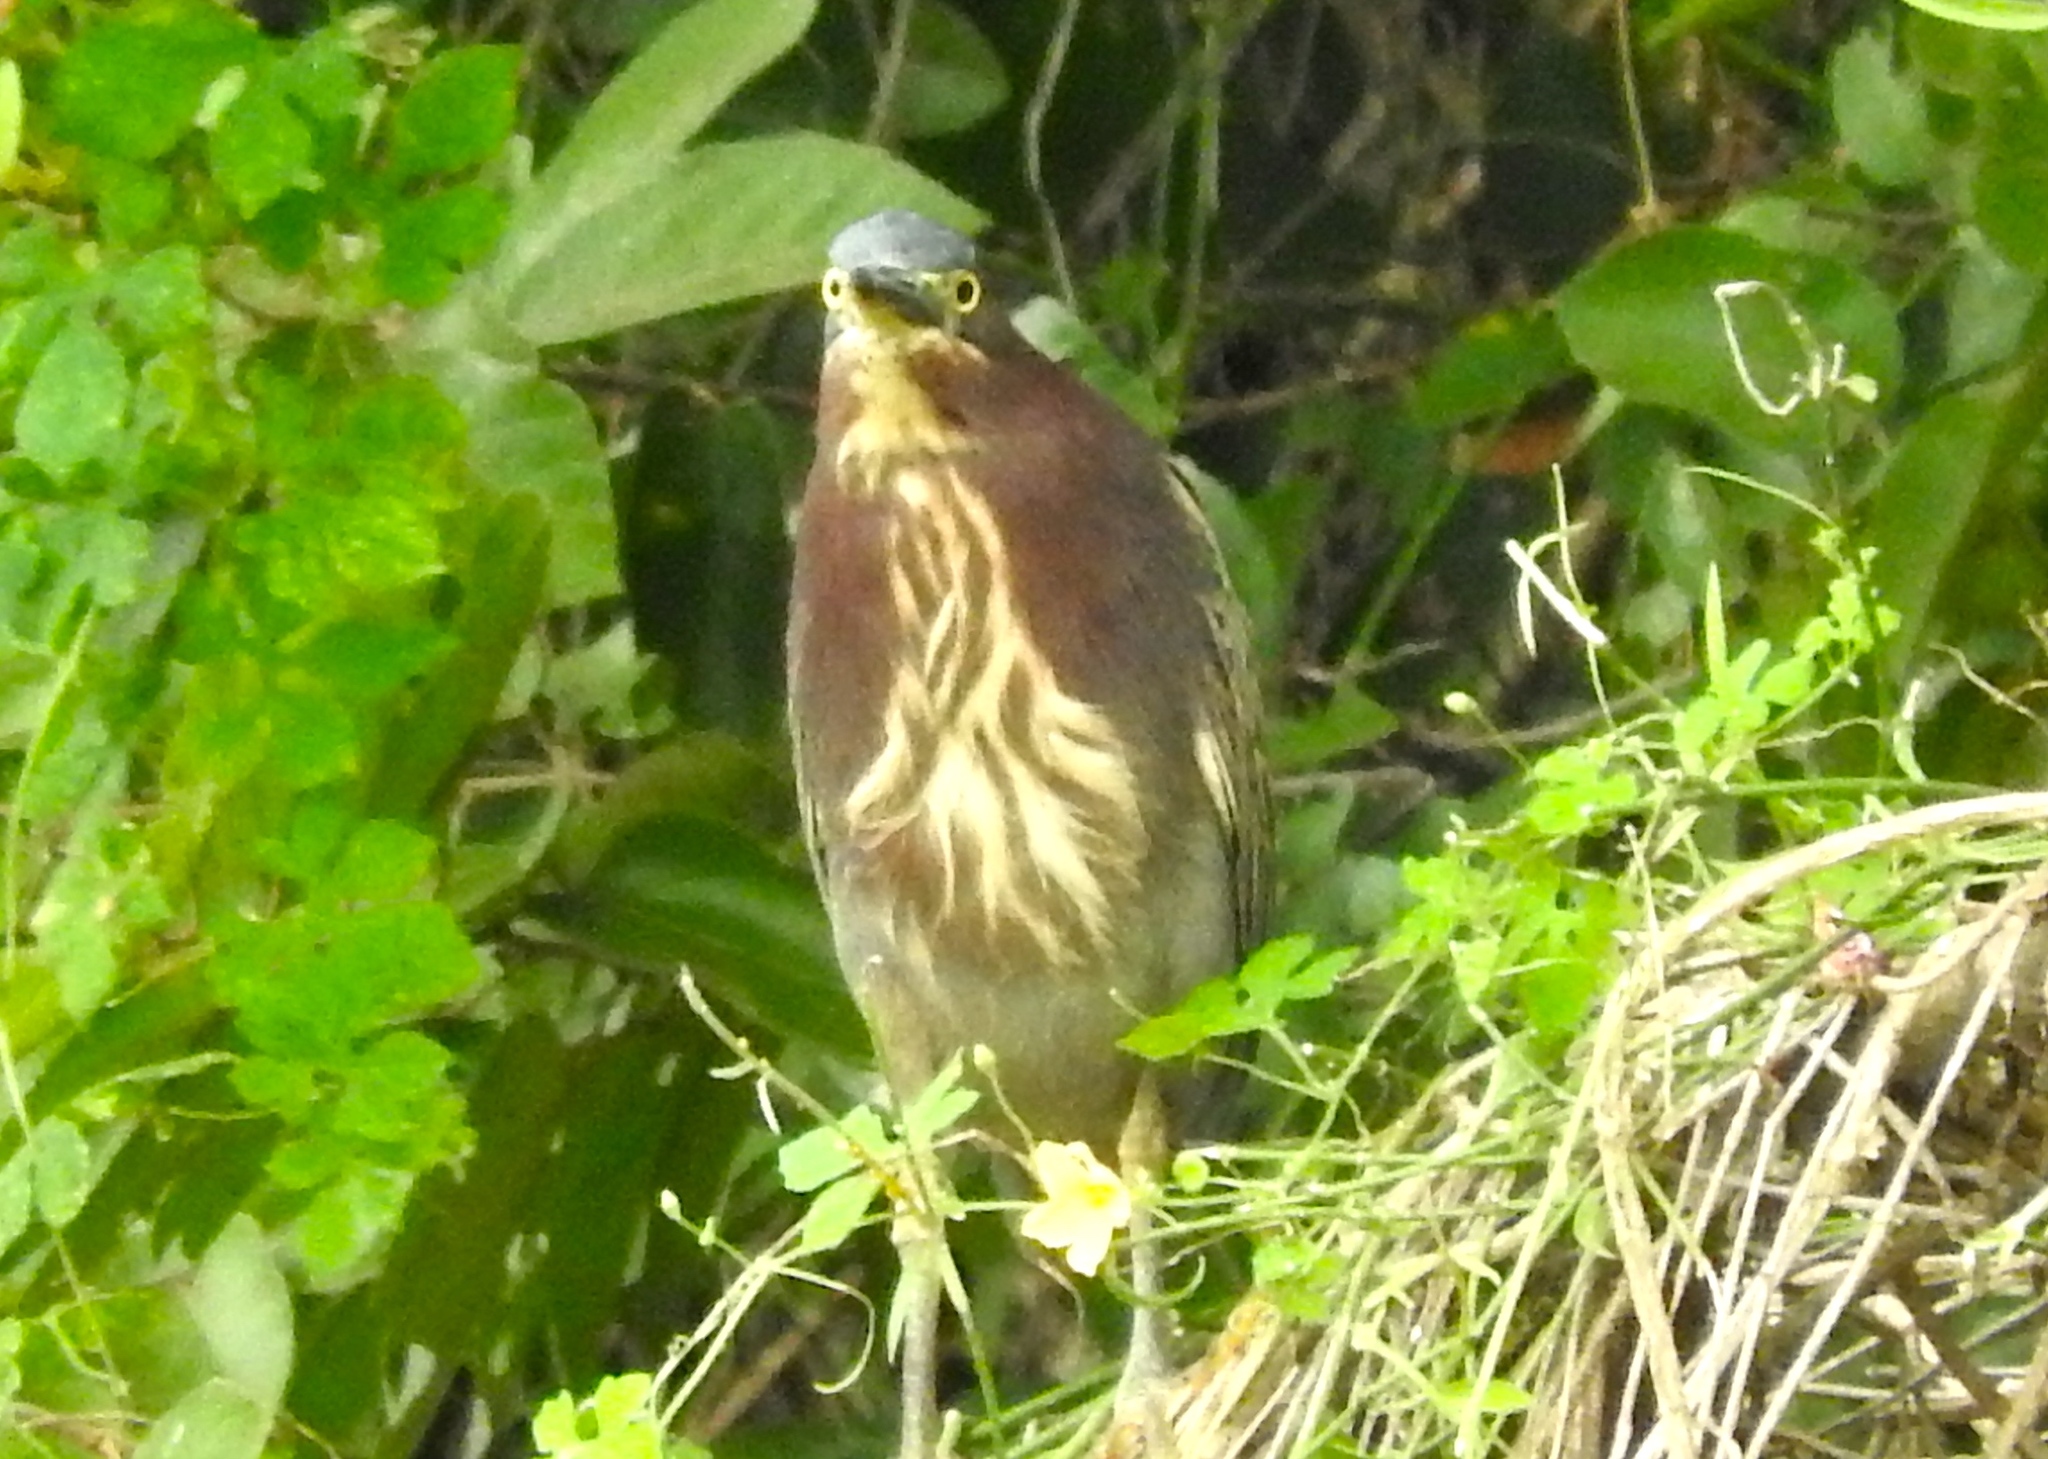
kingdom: Animalia
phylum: Chordata
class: Aves
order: Pelecaniformes
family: Ardeidae
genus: Butorides
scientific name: Butorides virescens
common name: Green heron
